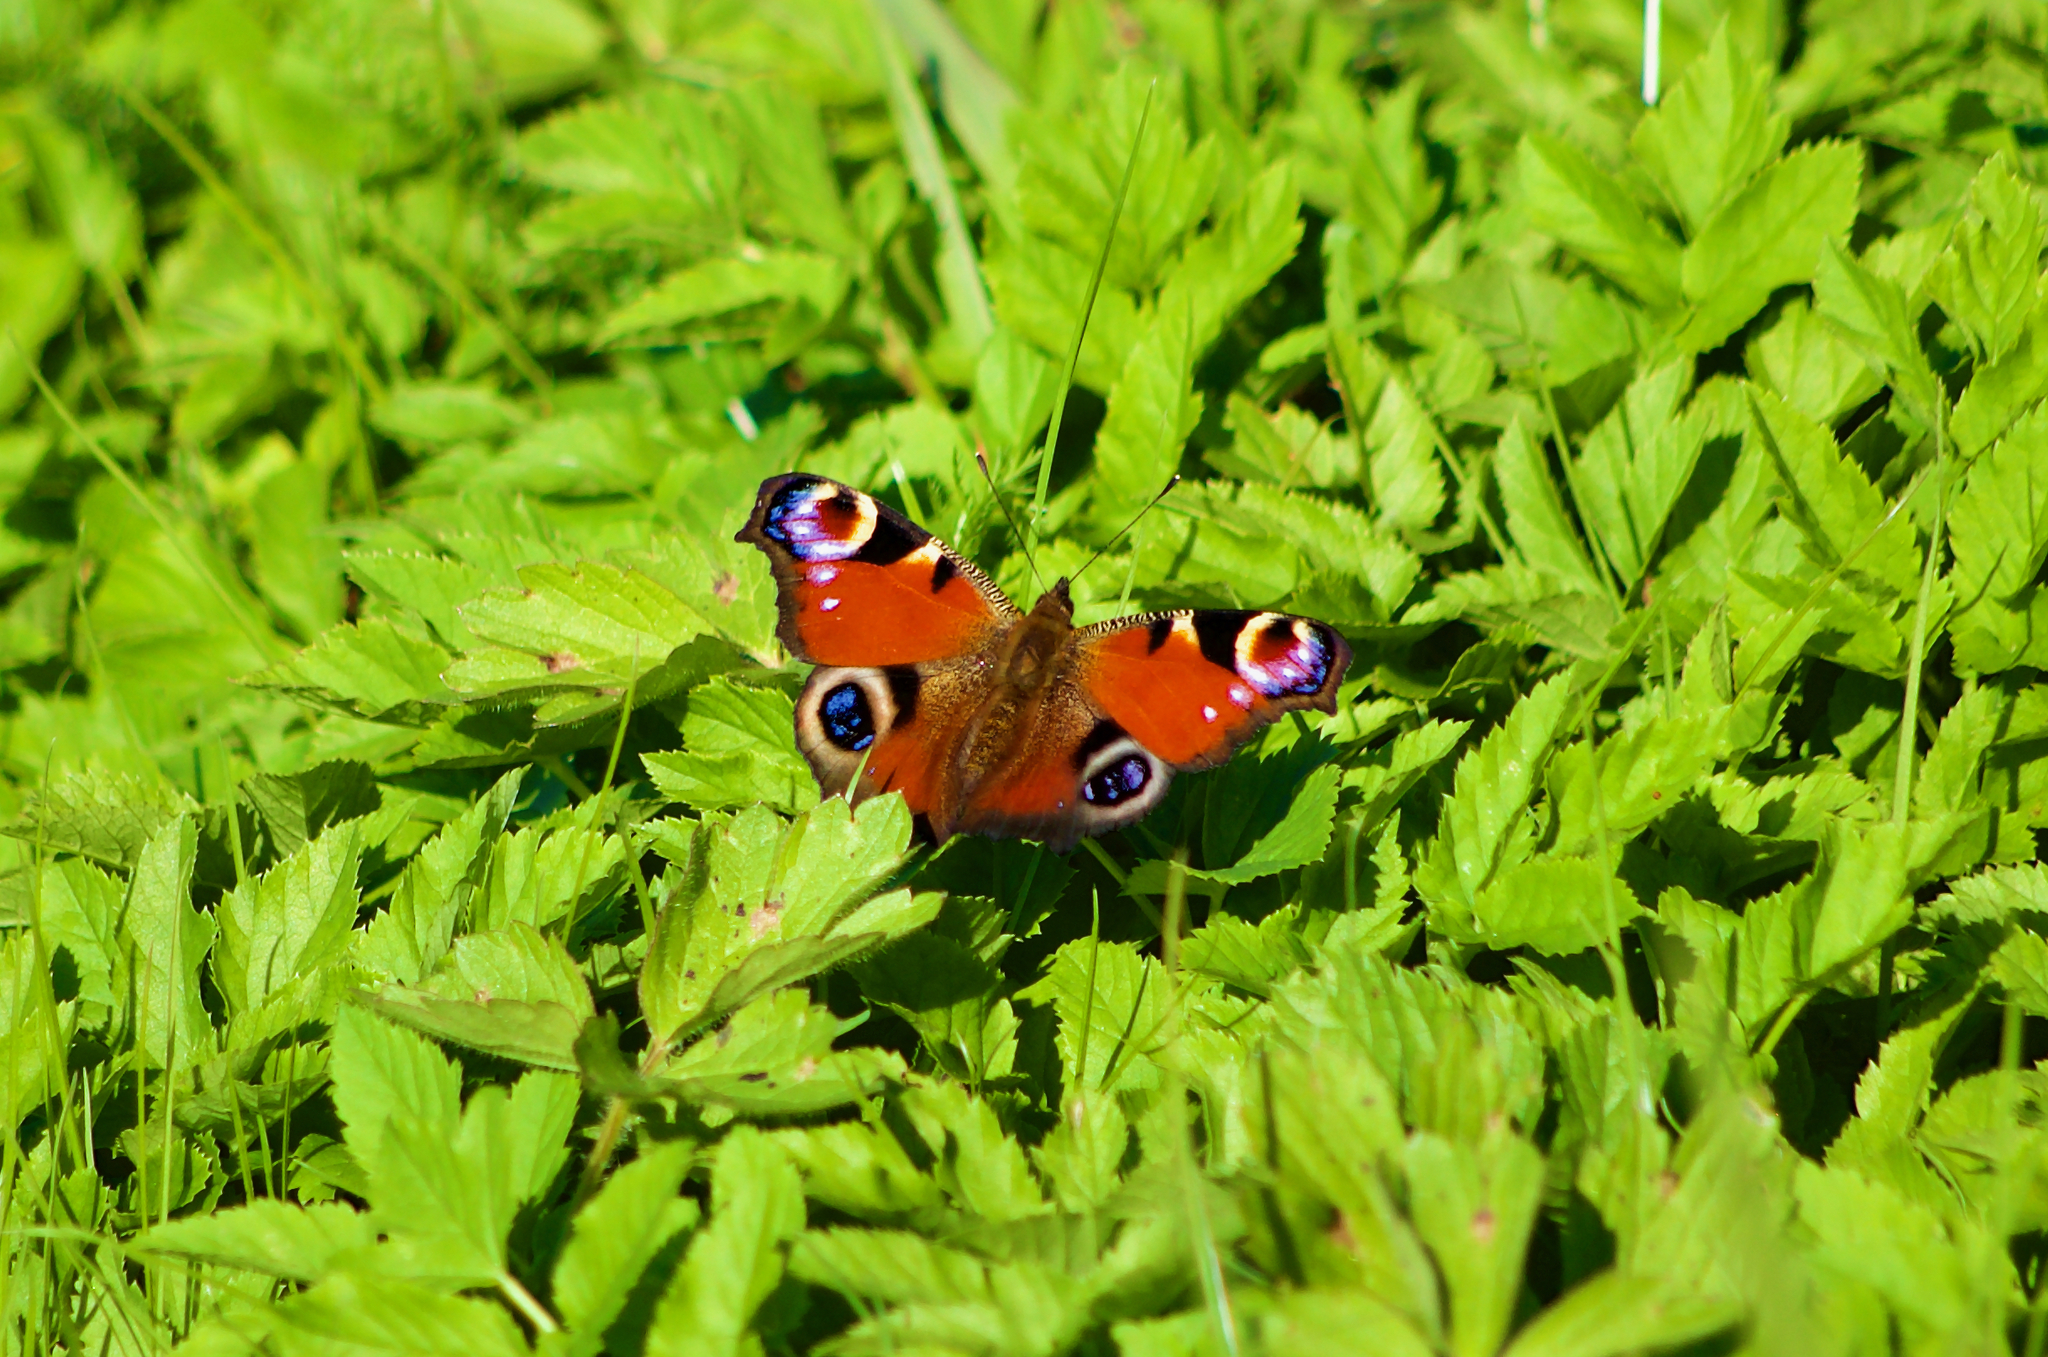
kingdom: Animalia
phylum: Arthropoda
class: Insecta
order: Lepidoptera
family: Nymphalidae
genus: Aglais
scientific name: Aglais io
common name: Peacock
